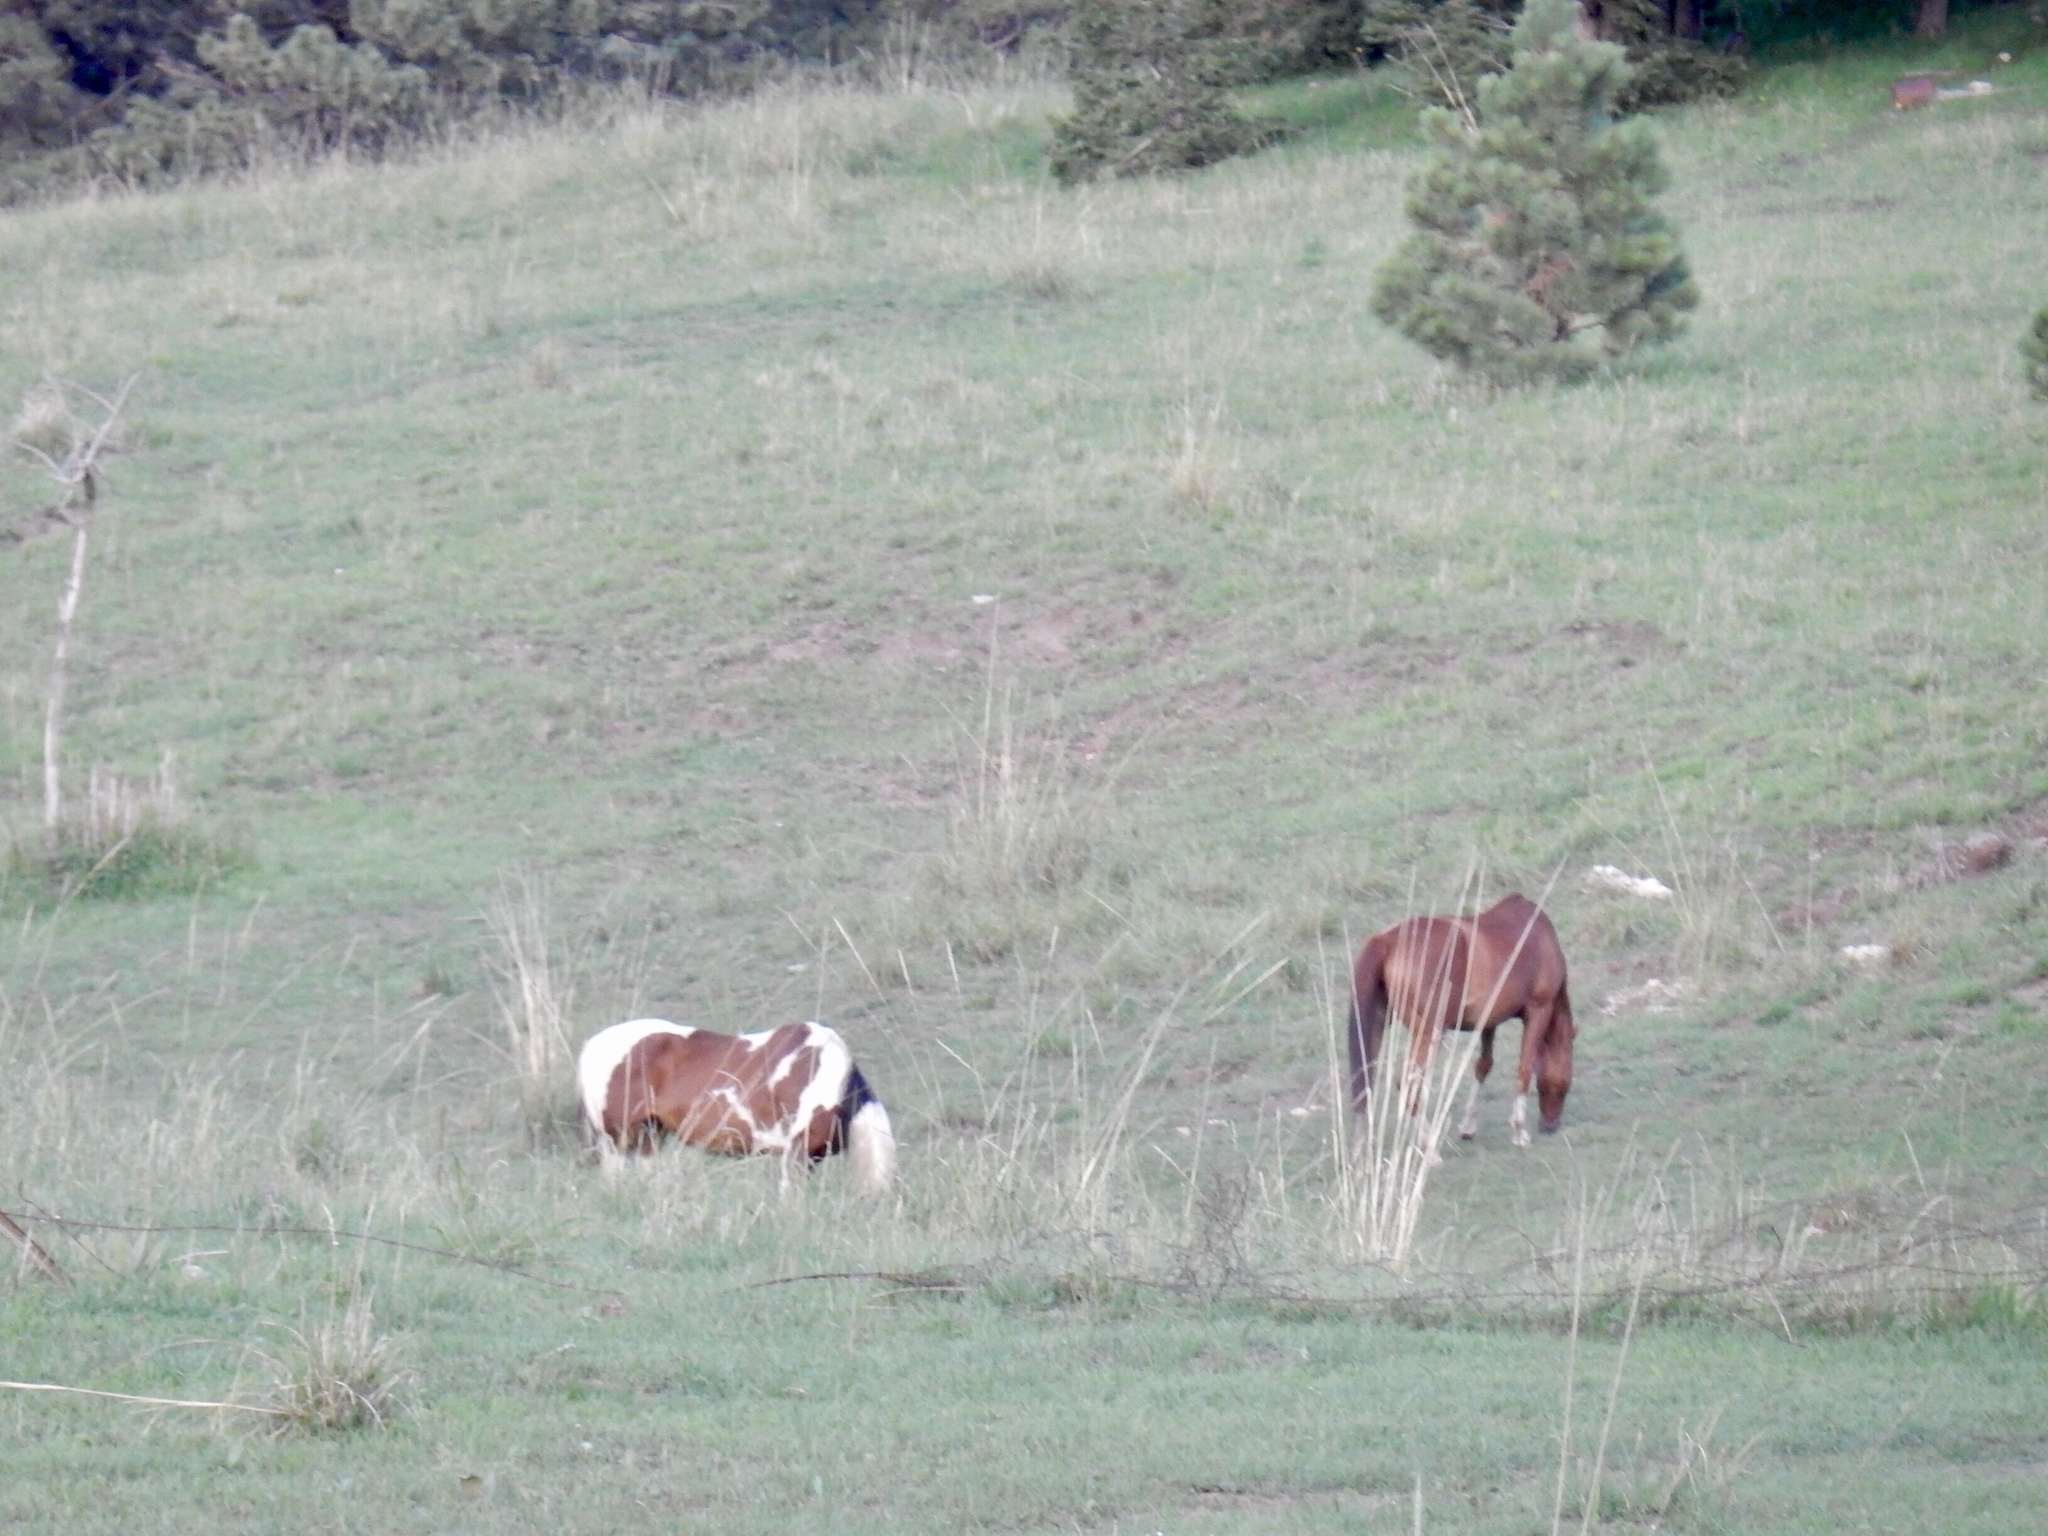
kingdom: Animalia
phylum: Chordata
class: Mammalia
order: Perissodactyla
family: Equidae
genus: Equus
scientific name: Equus caballus
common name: Horse
